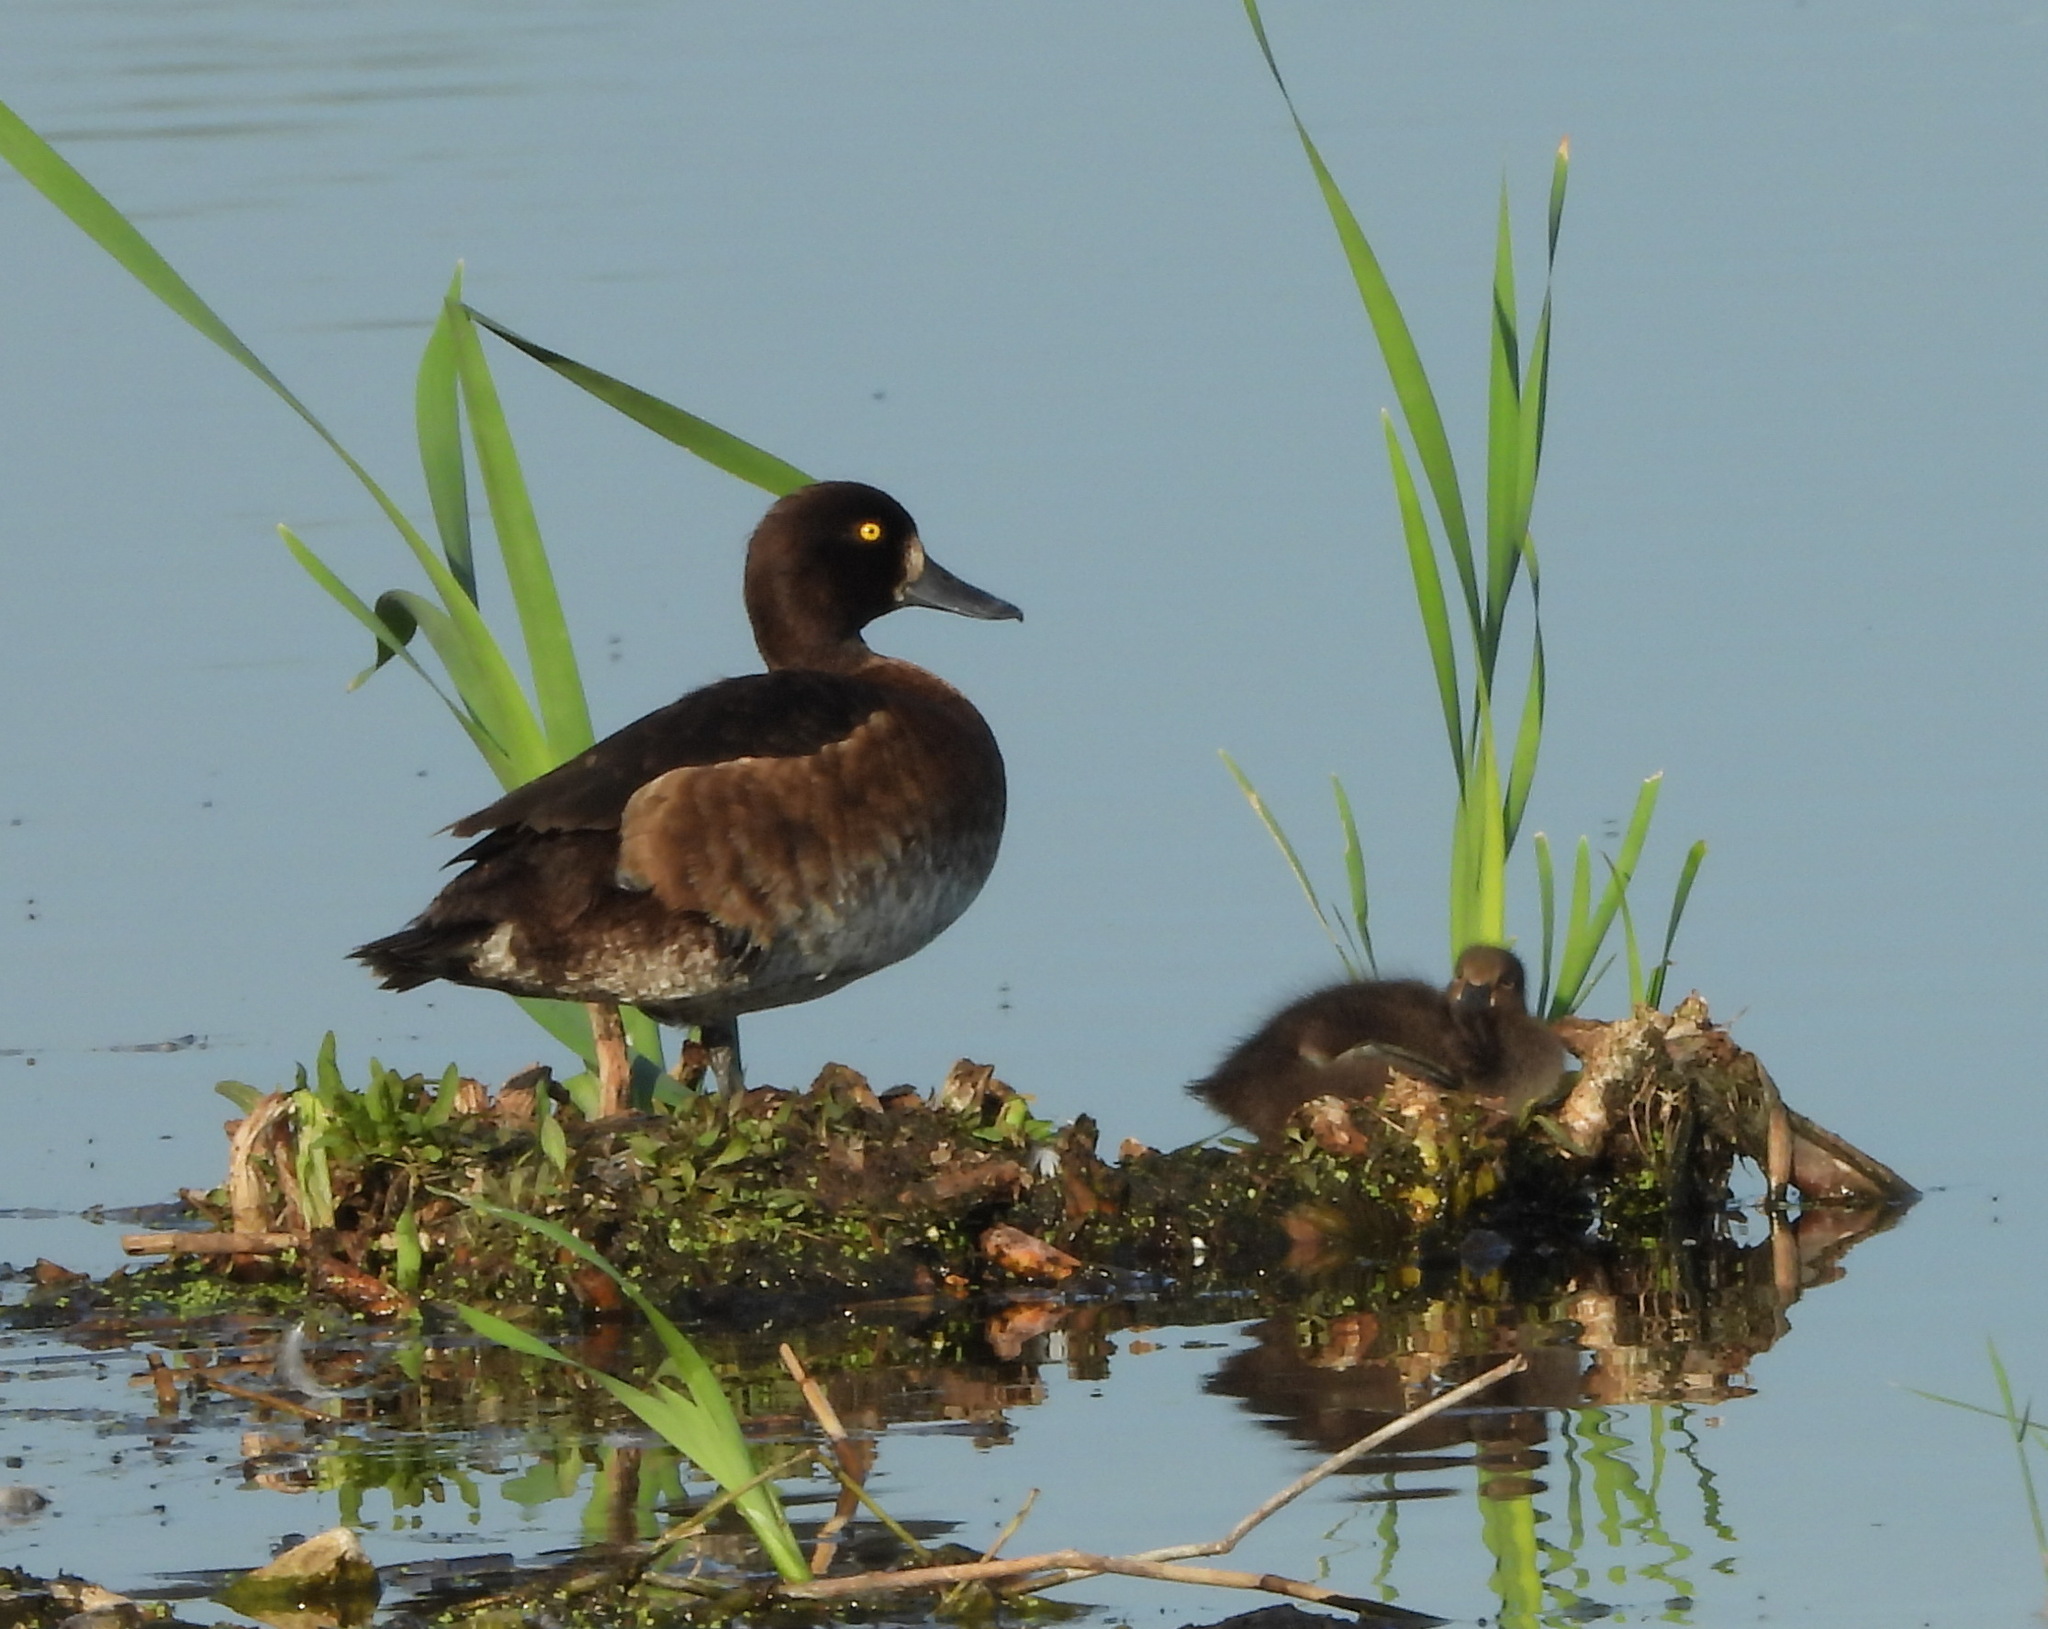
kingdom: Animalia
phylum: Chordata
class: Aves
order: Anseriformes
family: Anatidae
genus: Aythya
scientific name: Aythya fuligula
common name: Tufted duck
